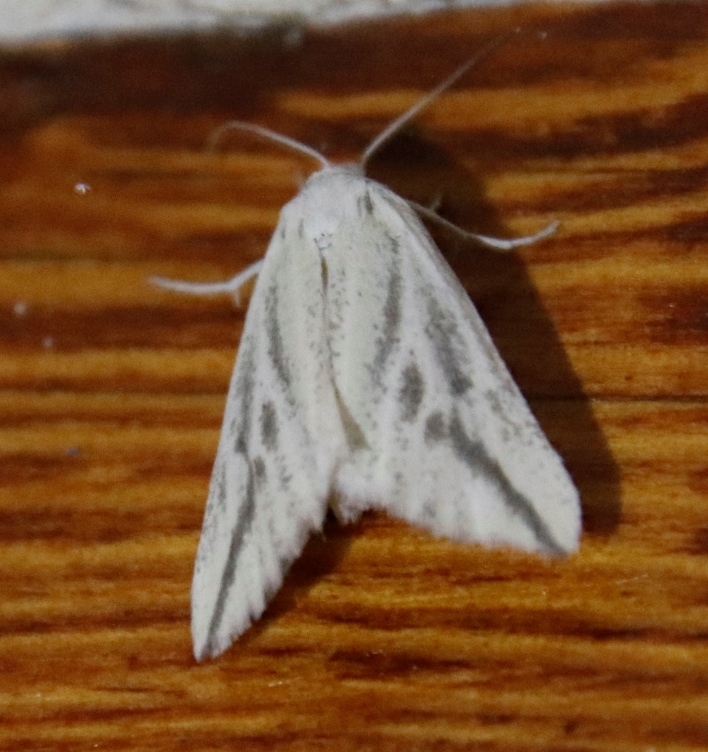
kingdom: Animalia
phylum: Arthropoda
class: Insecta
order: Lepidoptera
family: Geometridae
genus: Argyrophora
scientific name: Argyrophora variabilis
